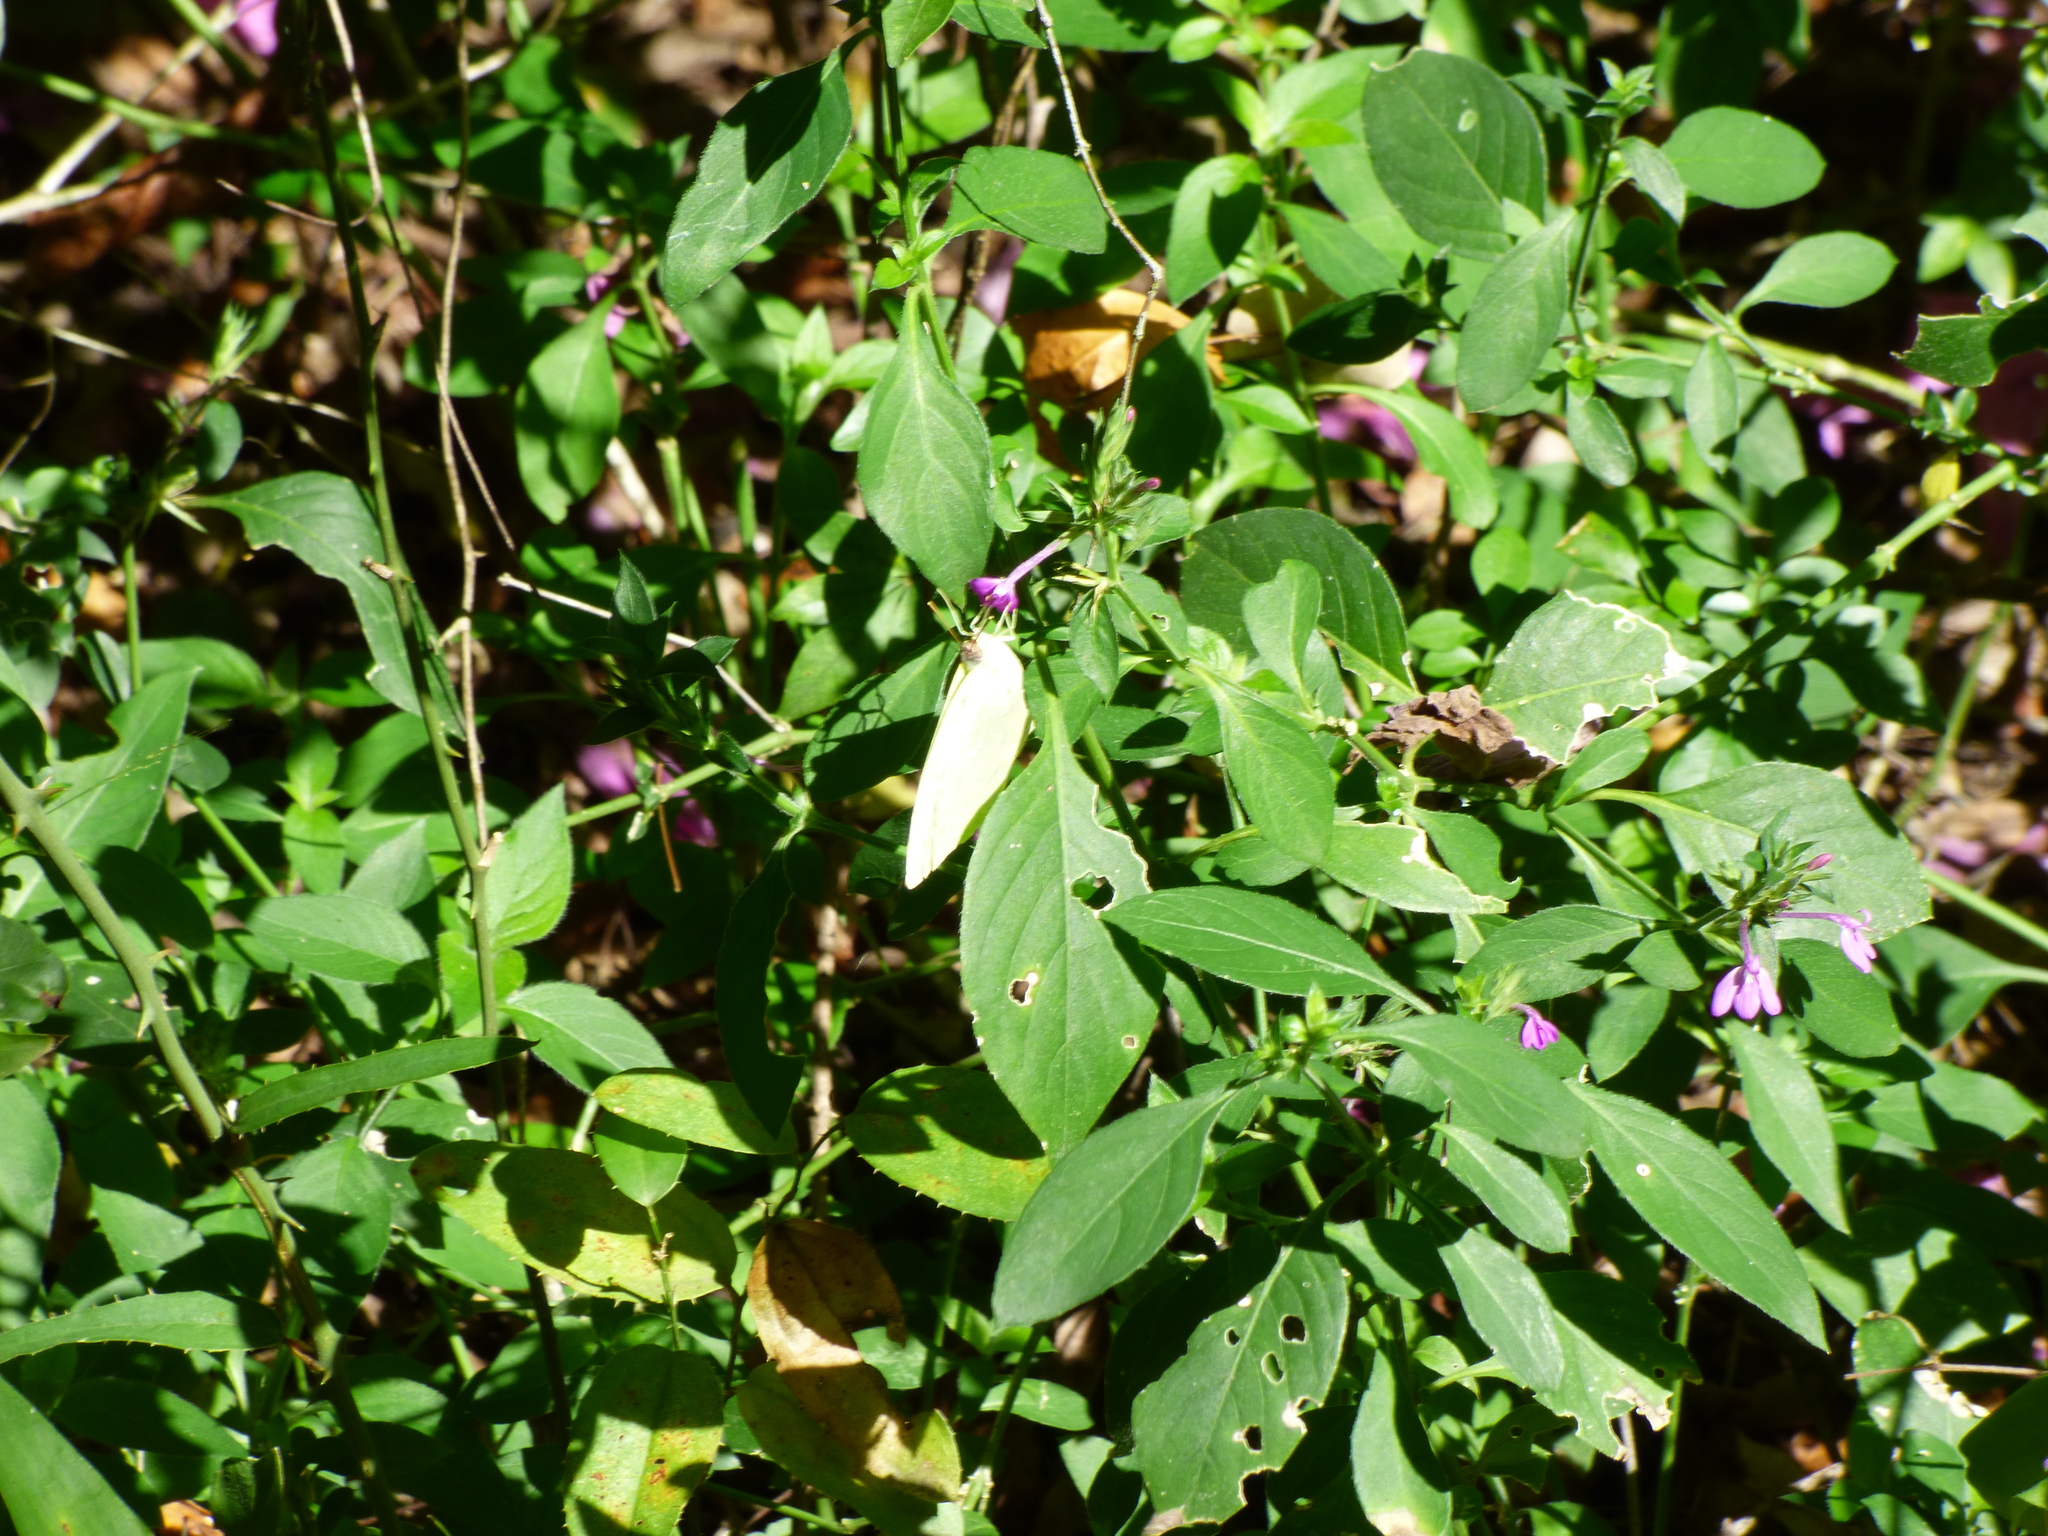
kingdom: Plantae
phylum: Tracheophyta
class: Magnoliopsida
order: Lamiales
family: Acanthaceae
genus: Justicia
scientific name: Justicia goudotii
